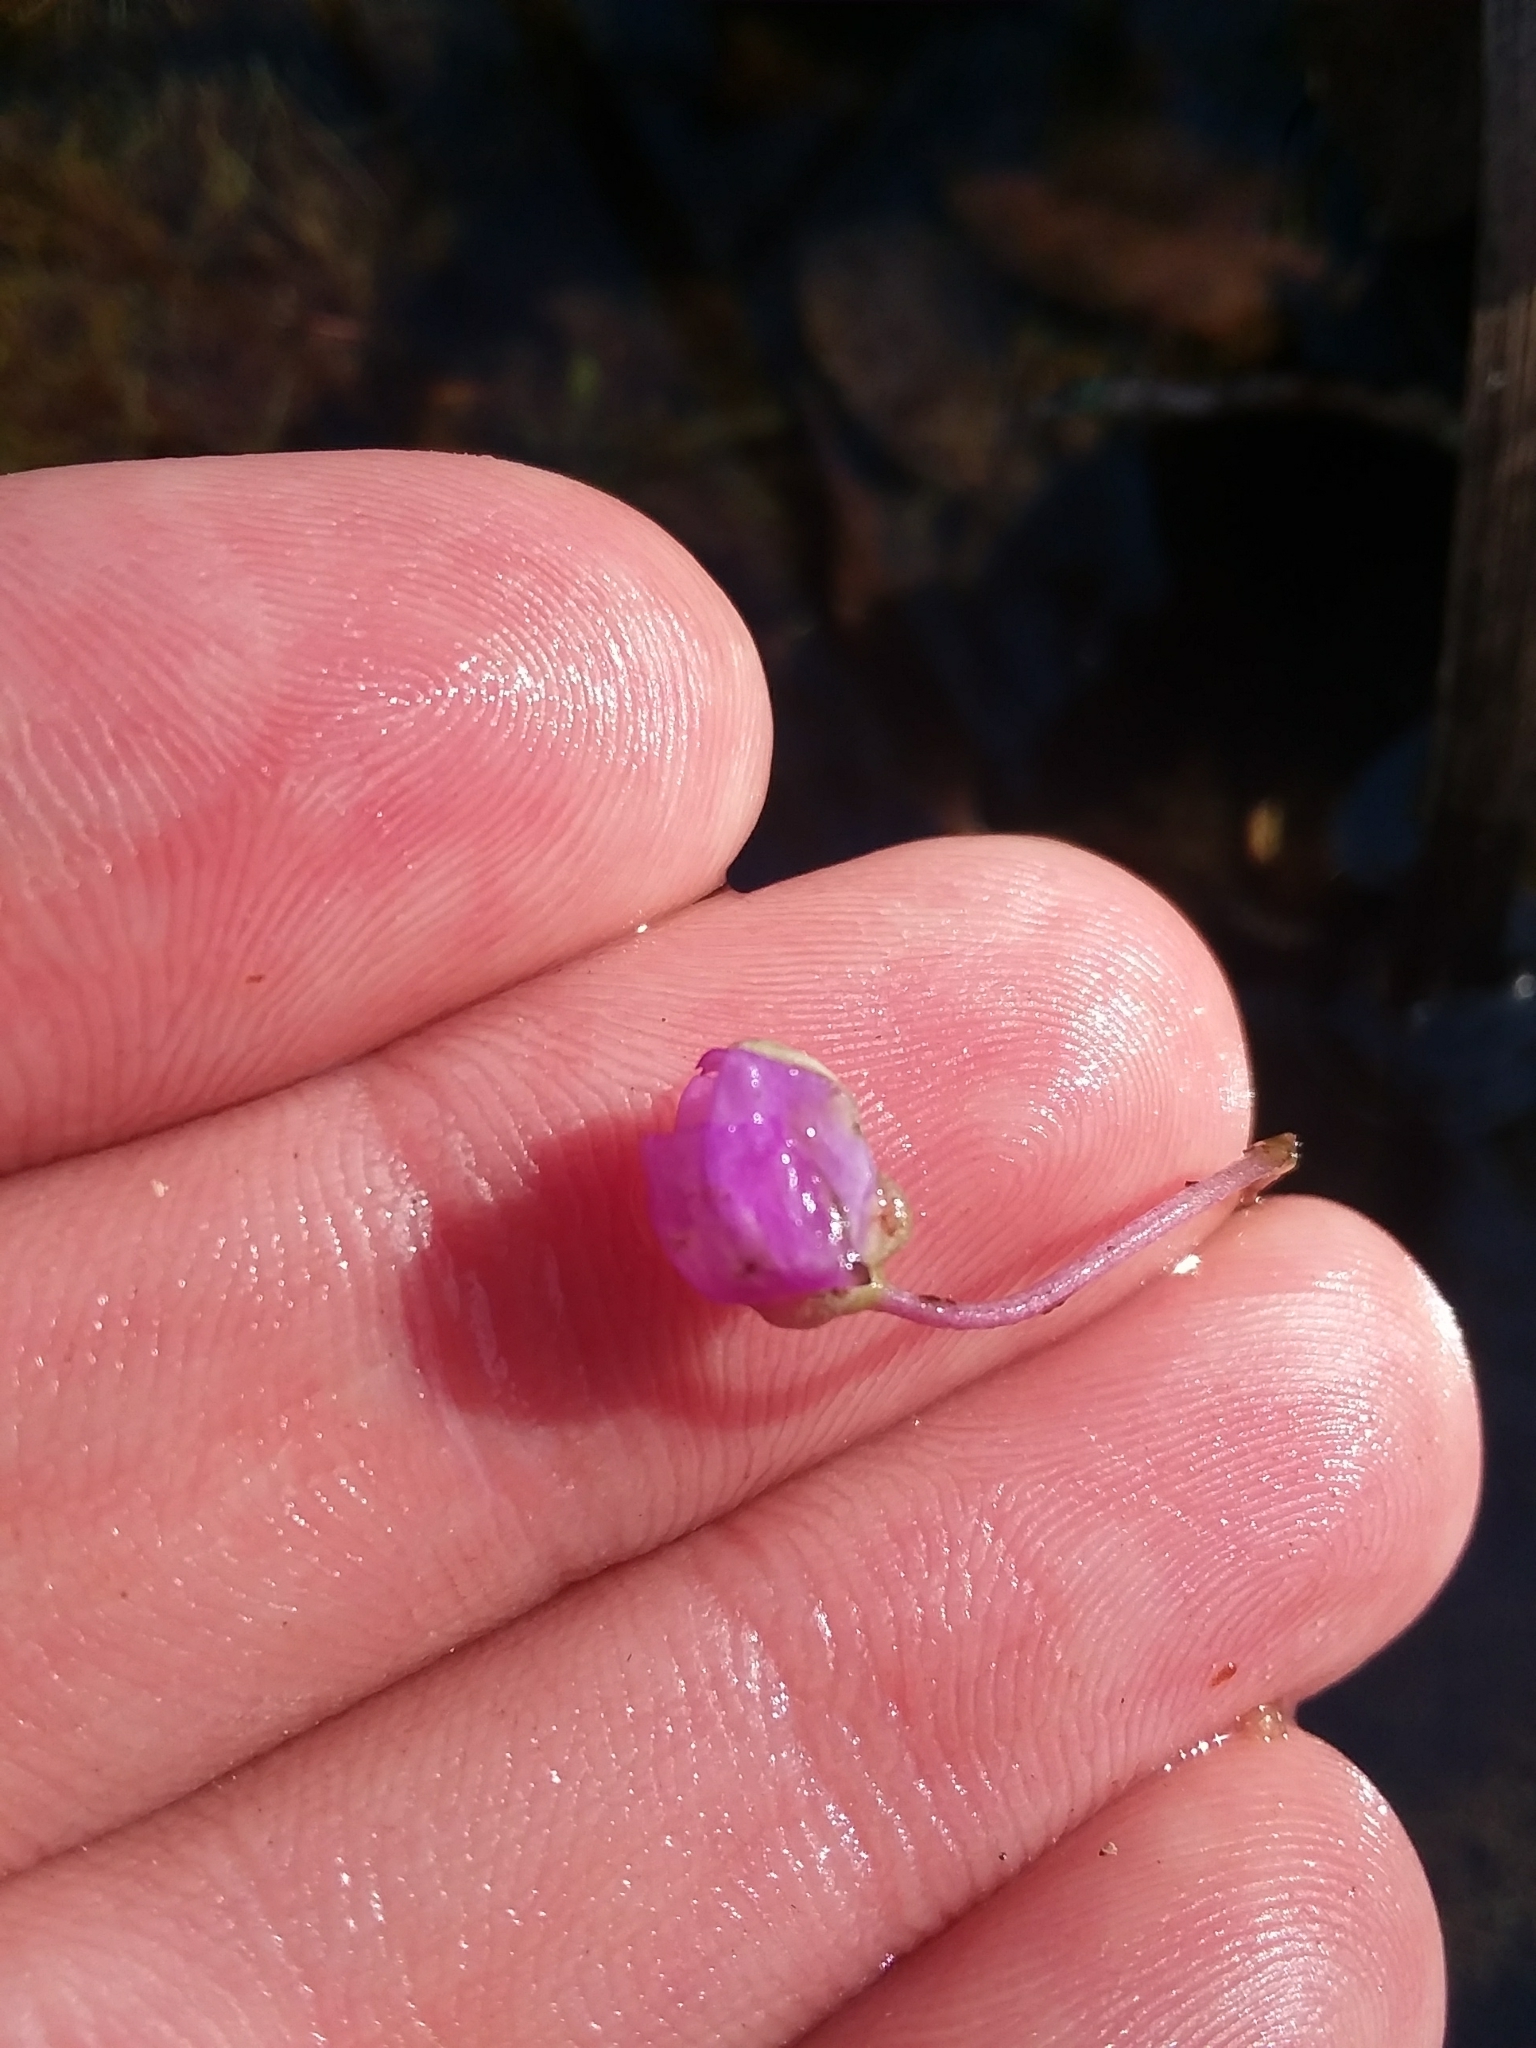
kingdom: Plantae
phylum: Tracheophyta
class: Magnoliopsida
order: Lamiales
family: Lentibulariaceae
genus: Utricularia
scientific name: Utricularia purpurea
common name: Eastern purple bladderwort
